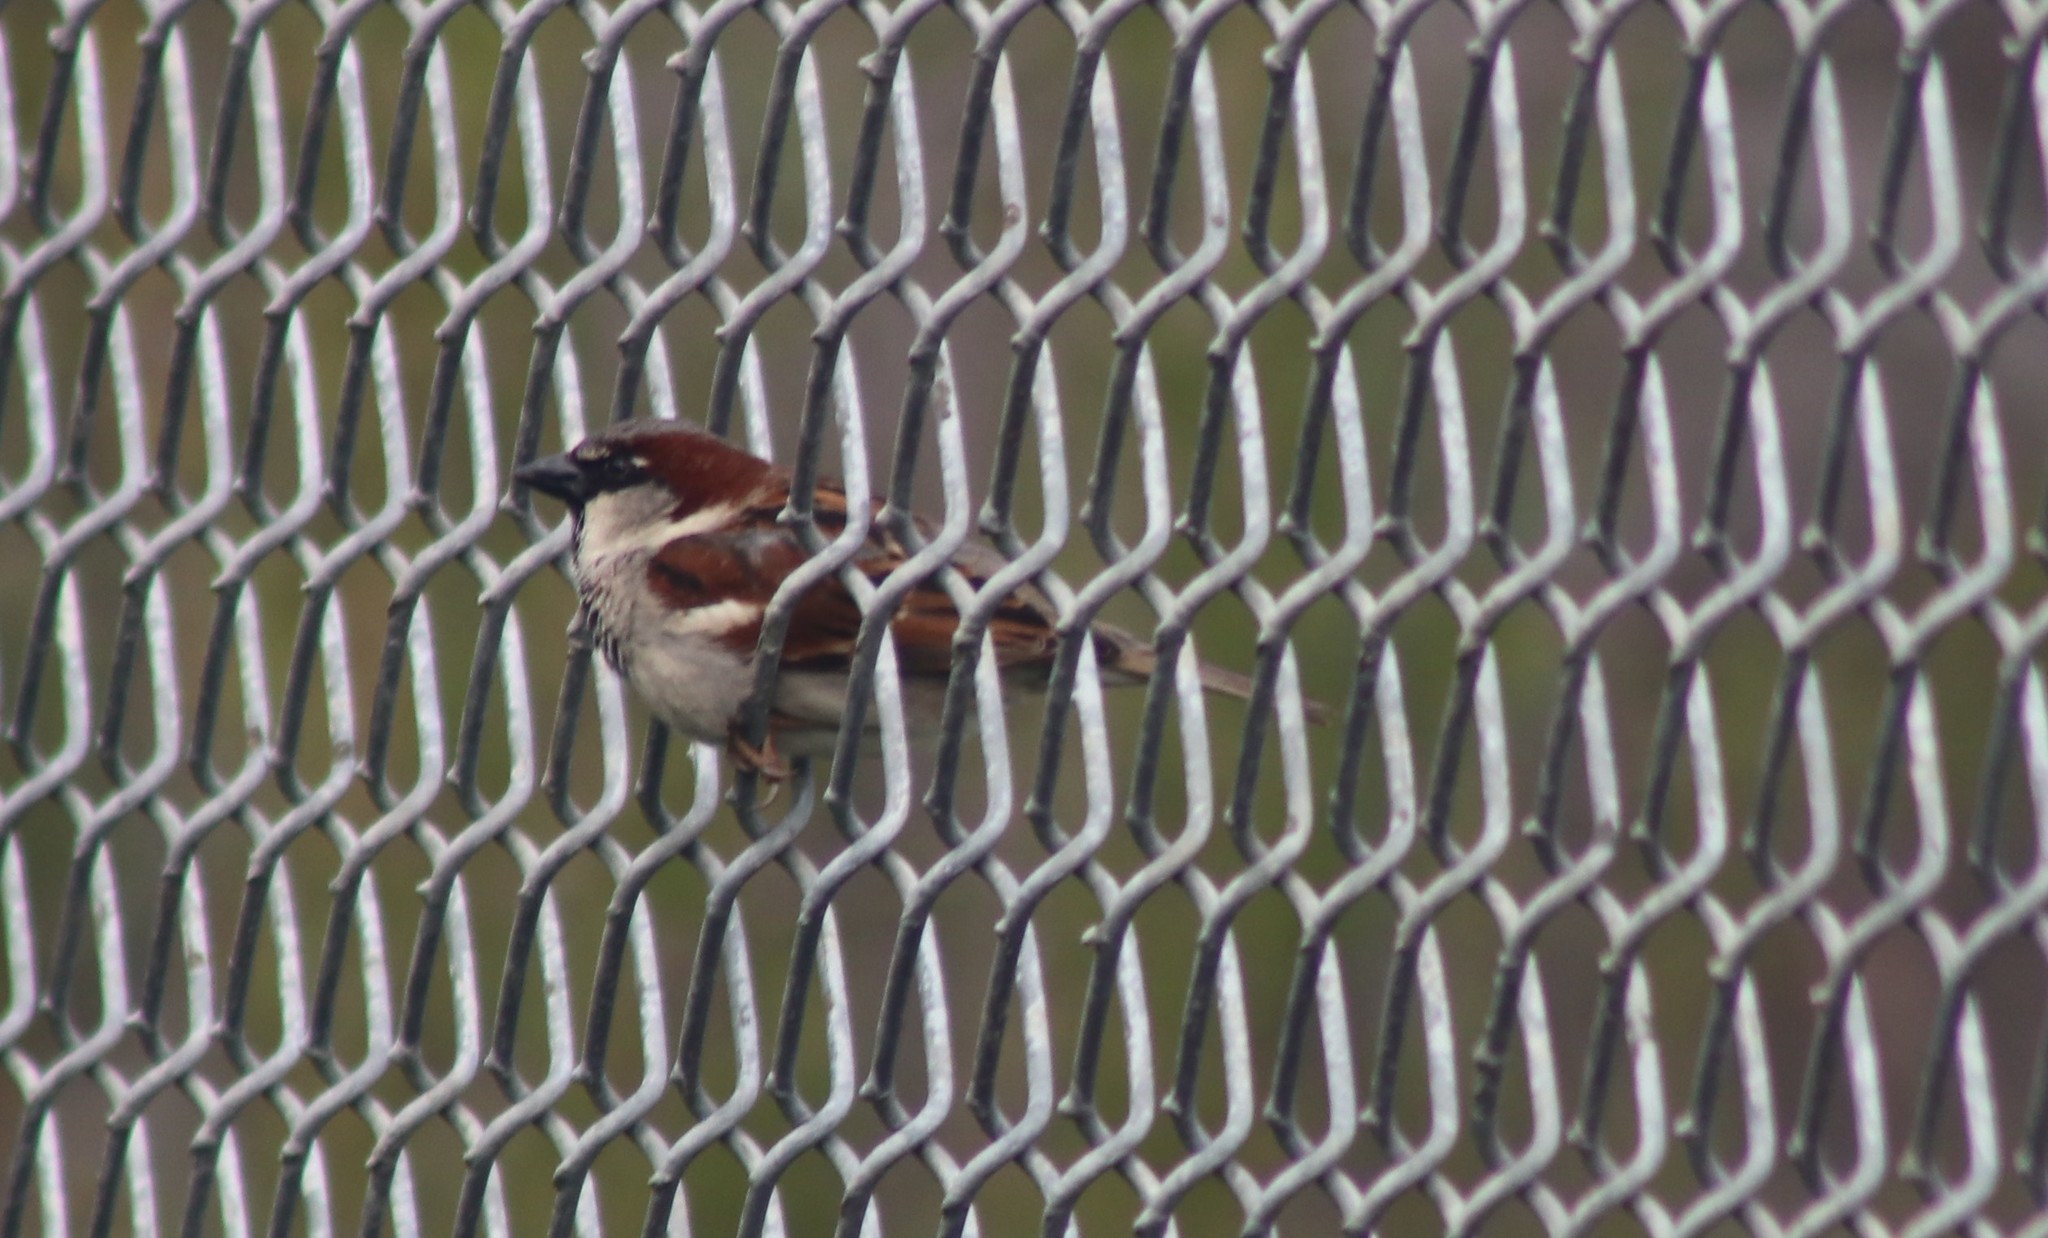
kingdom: Animalia
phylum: Chordata
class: Aves
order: Passeriformes
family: Passeridae
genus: Passer
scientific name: Passer domesticus
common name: House sparrow
